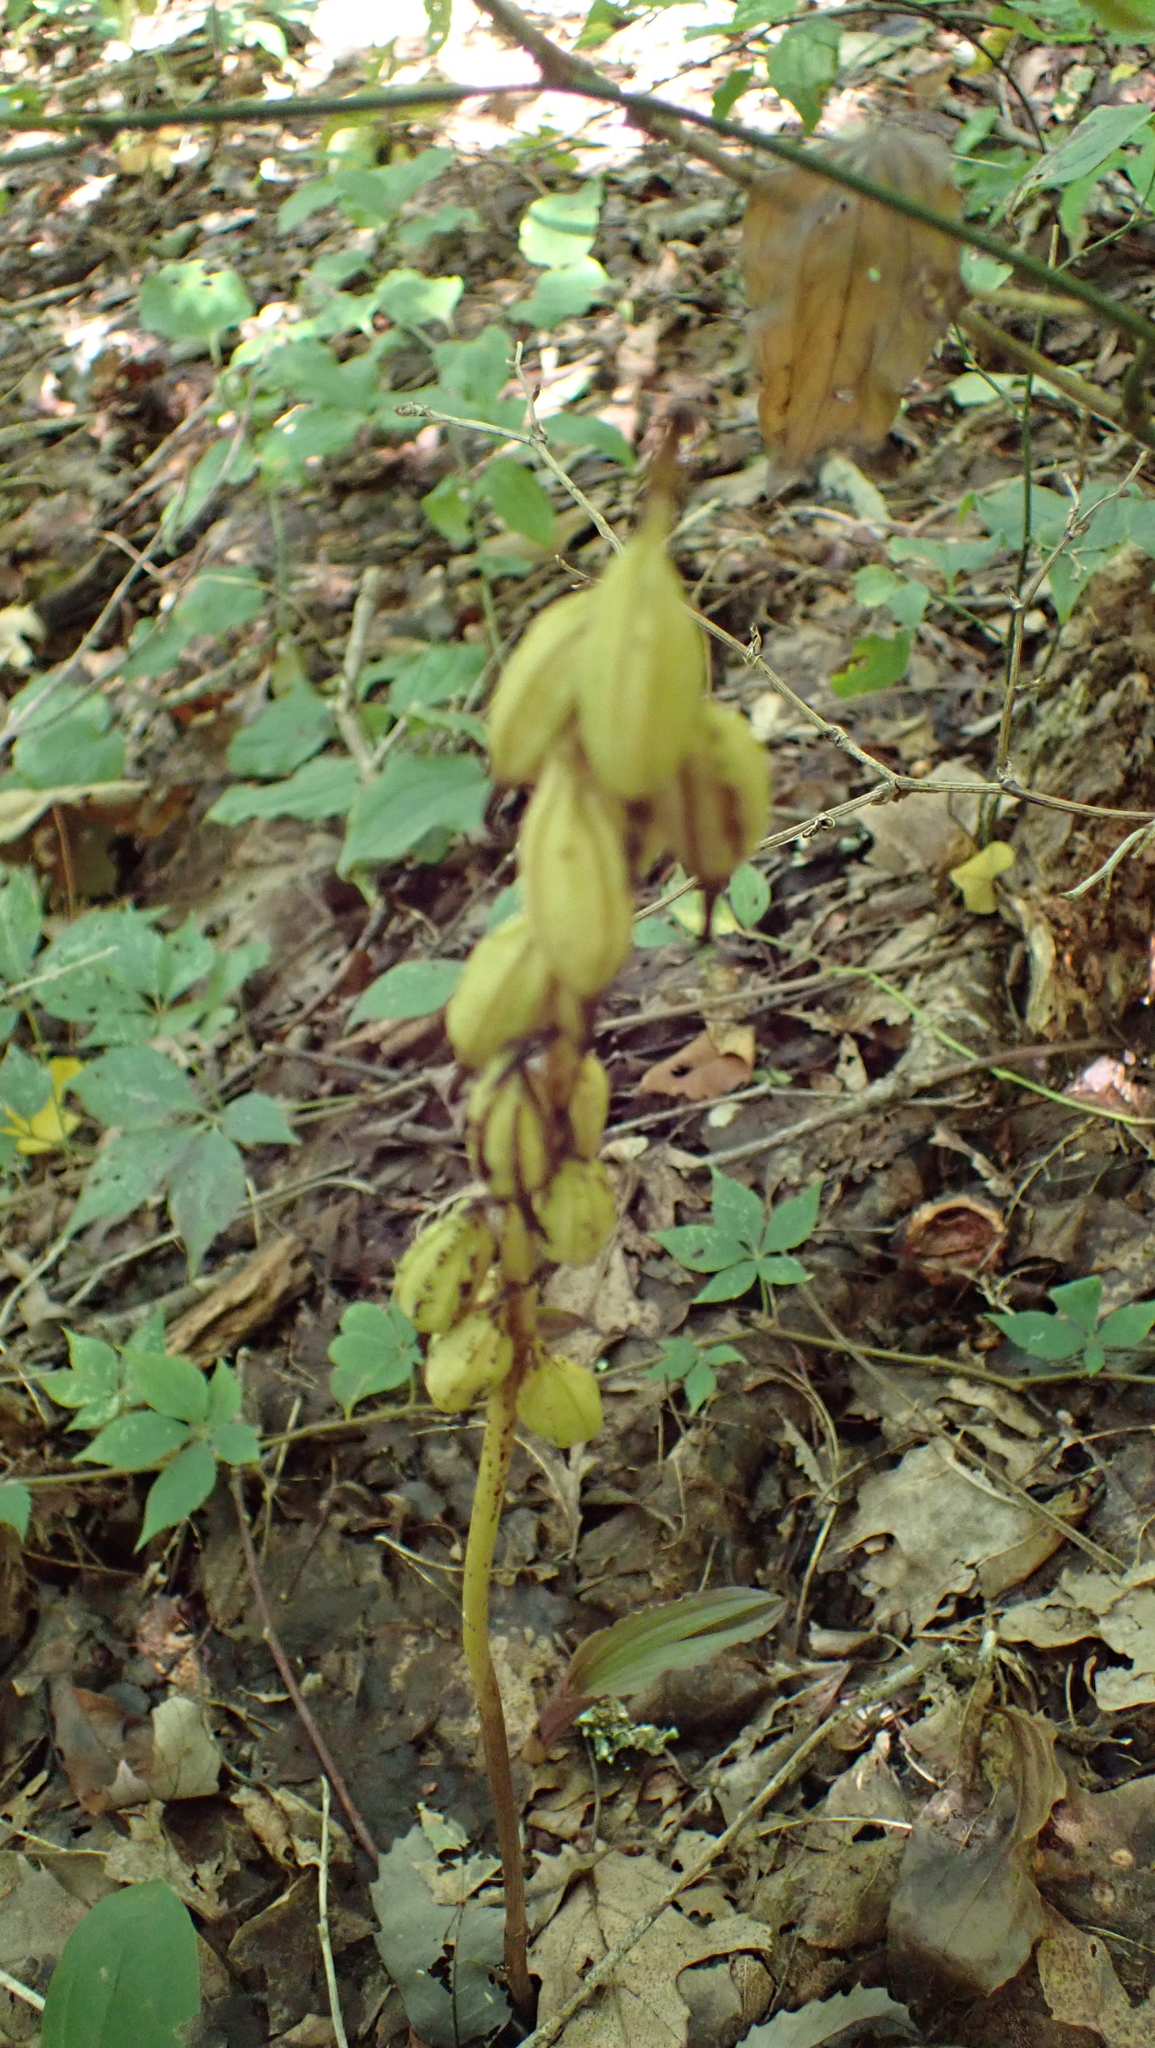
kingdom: Plantae
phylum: Tracheophyta
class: Liliopsida
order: Asparagales
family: Orchidaceae
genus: Aplectrum
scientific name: Aplectrum hyemale
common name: Adam-and-eve
